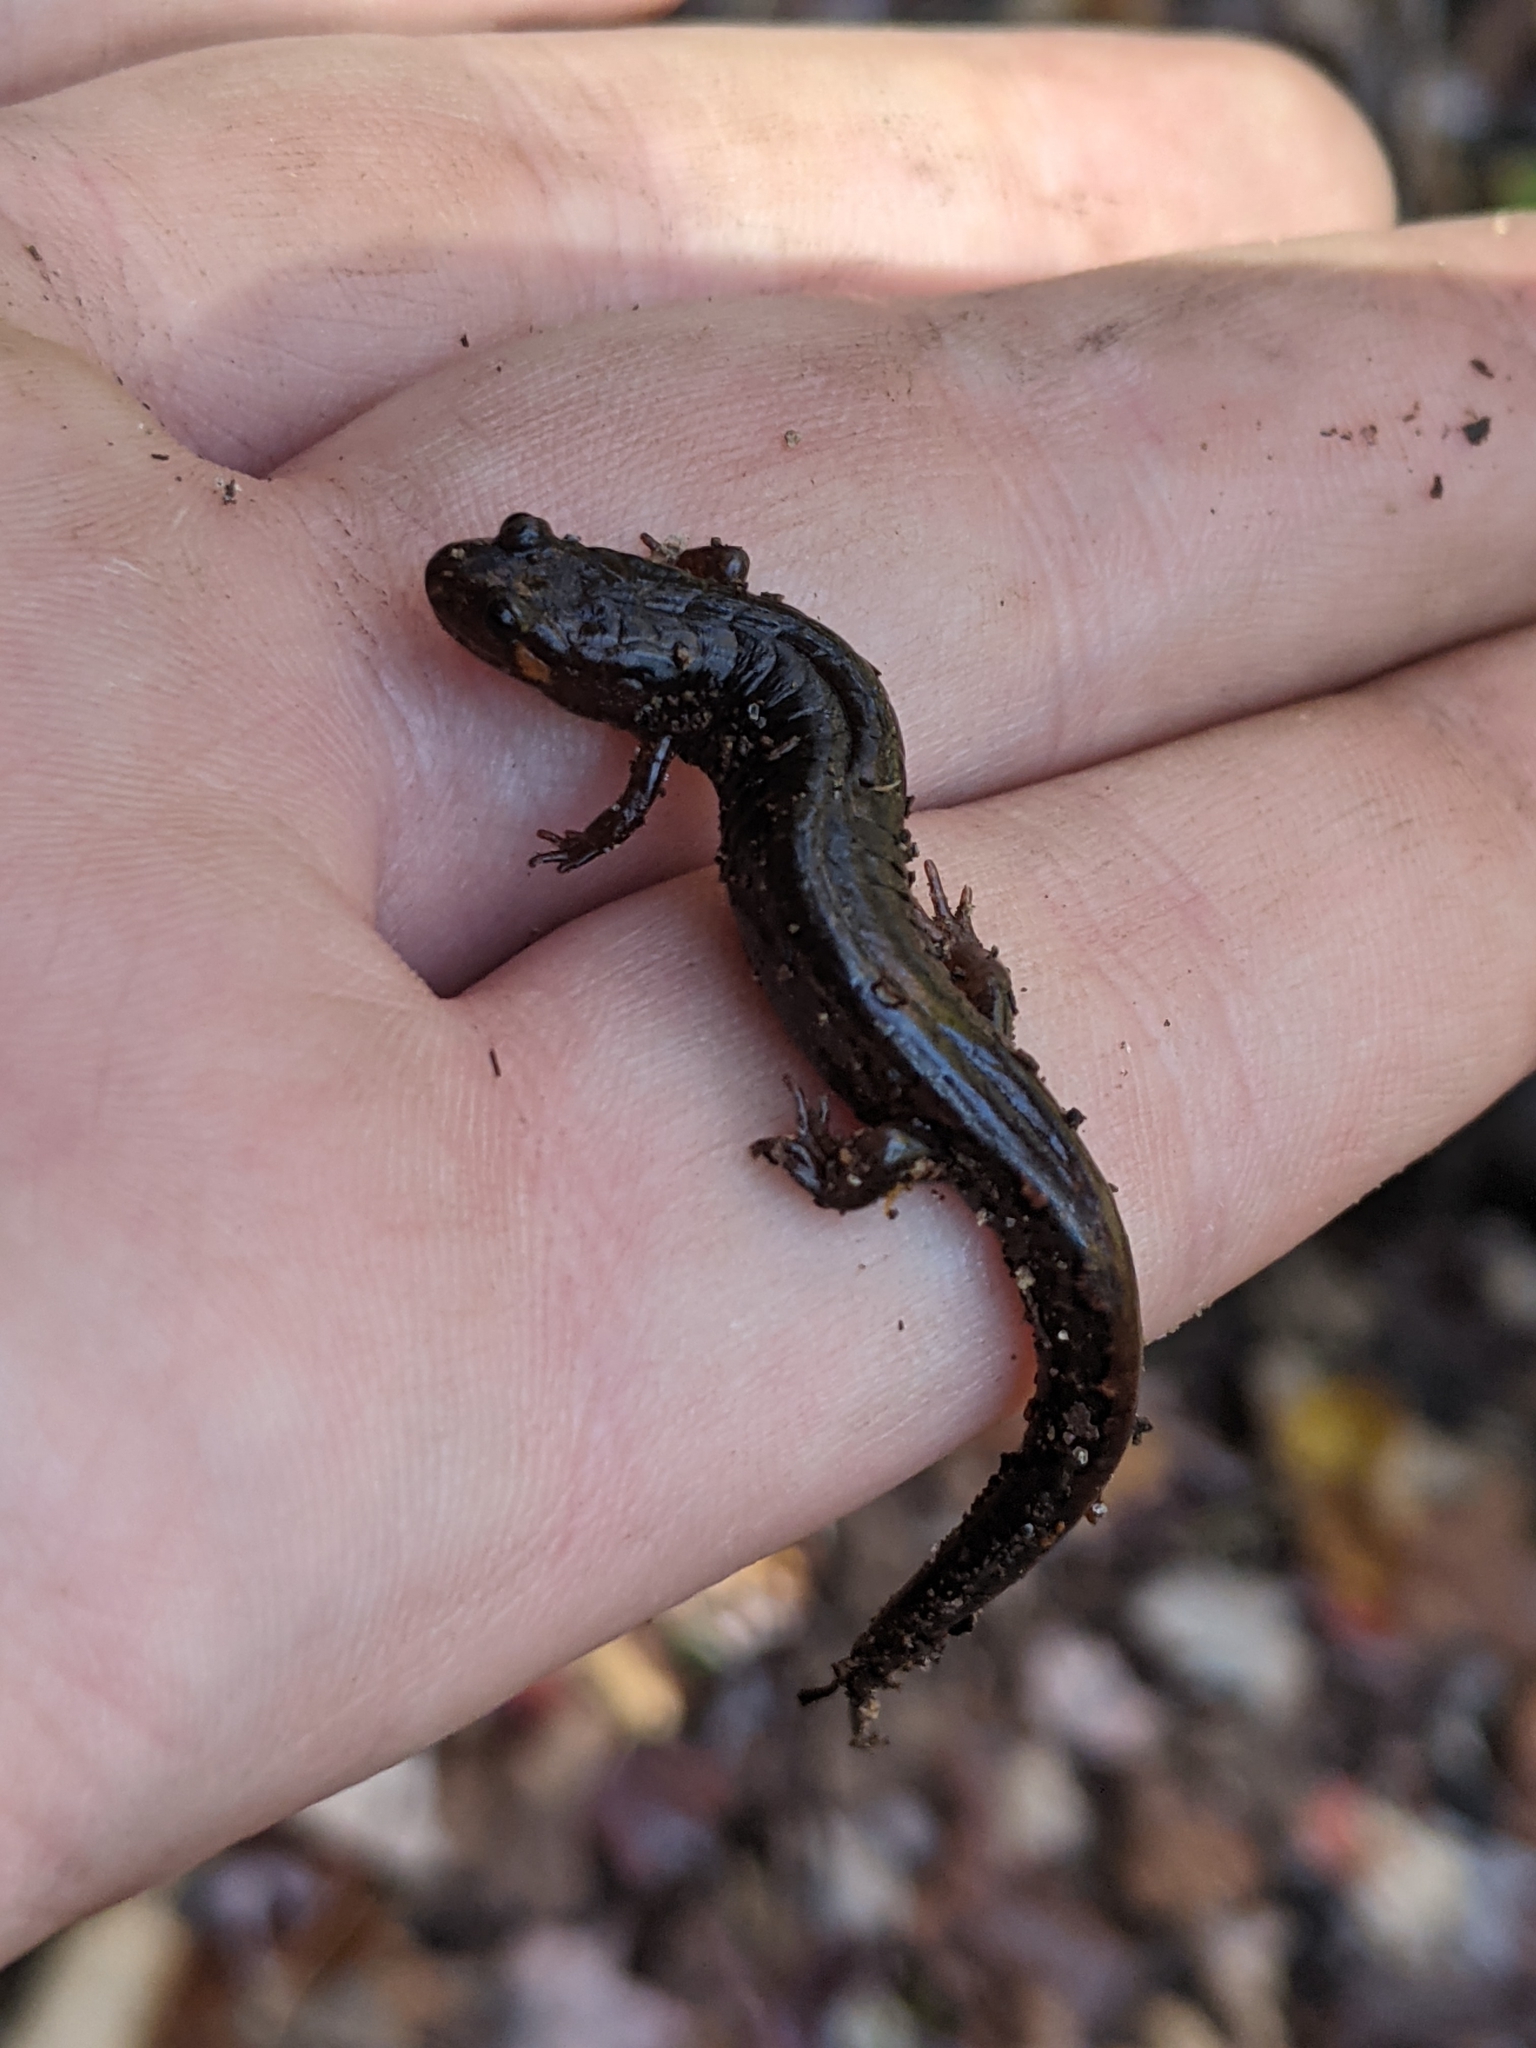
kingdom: Animalia
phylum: Chordata
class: Amphibia
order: Caudata
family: Plethodontidae
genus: Desmognathus
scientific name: Desmognathus ocoee
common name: Ocoee salamander
